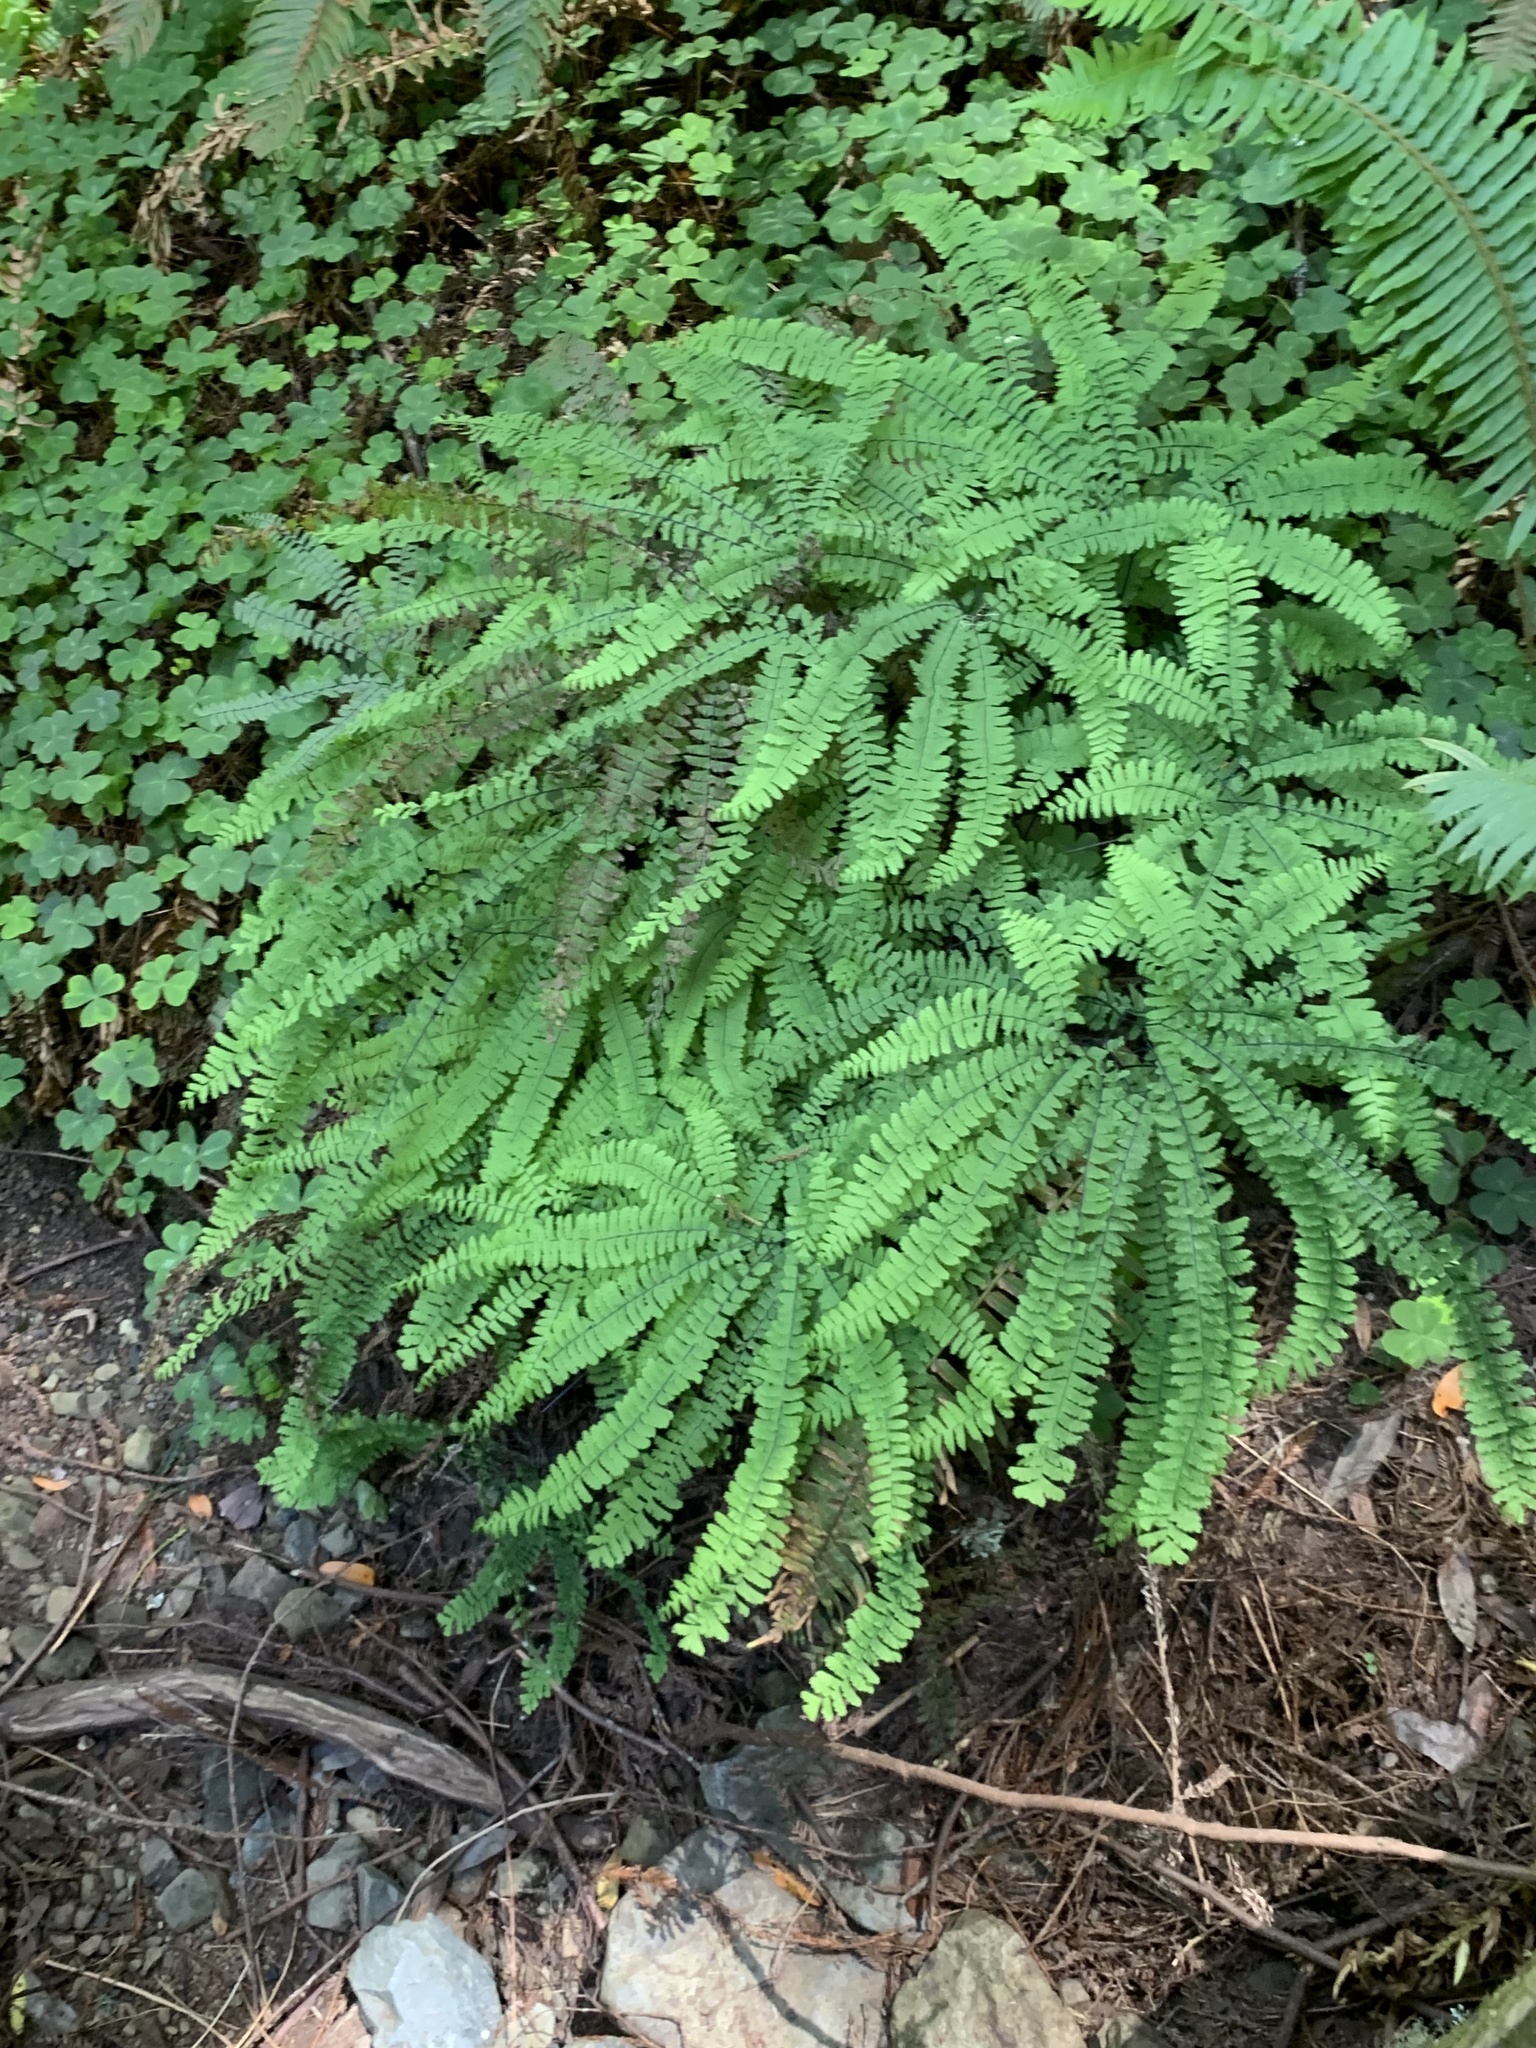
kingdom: Plantae
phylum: Tracheophyta
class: Polypodiopsida
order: Polypodiales
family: Pteridaceae
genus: Adiantum
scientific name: Adiantum aleuticum
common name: Aleutian maidenhair fern
